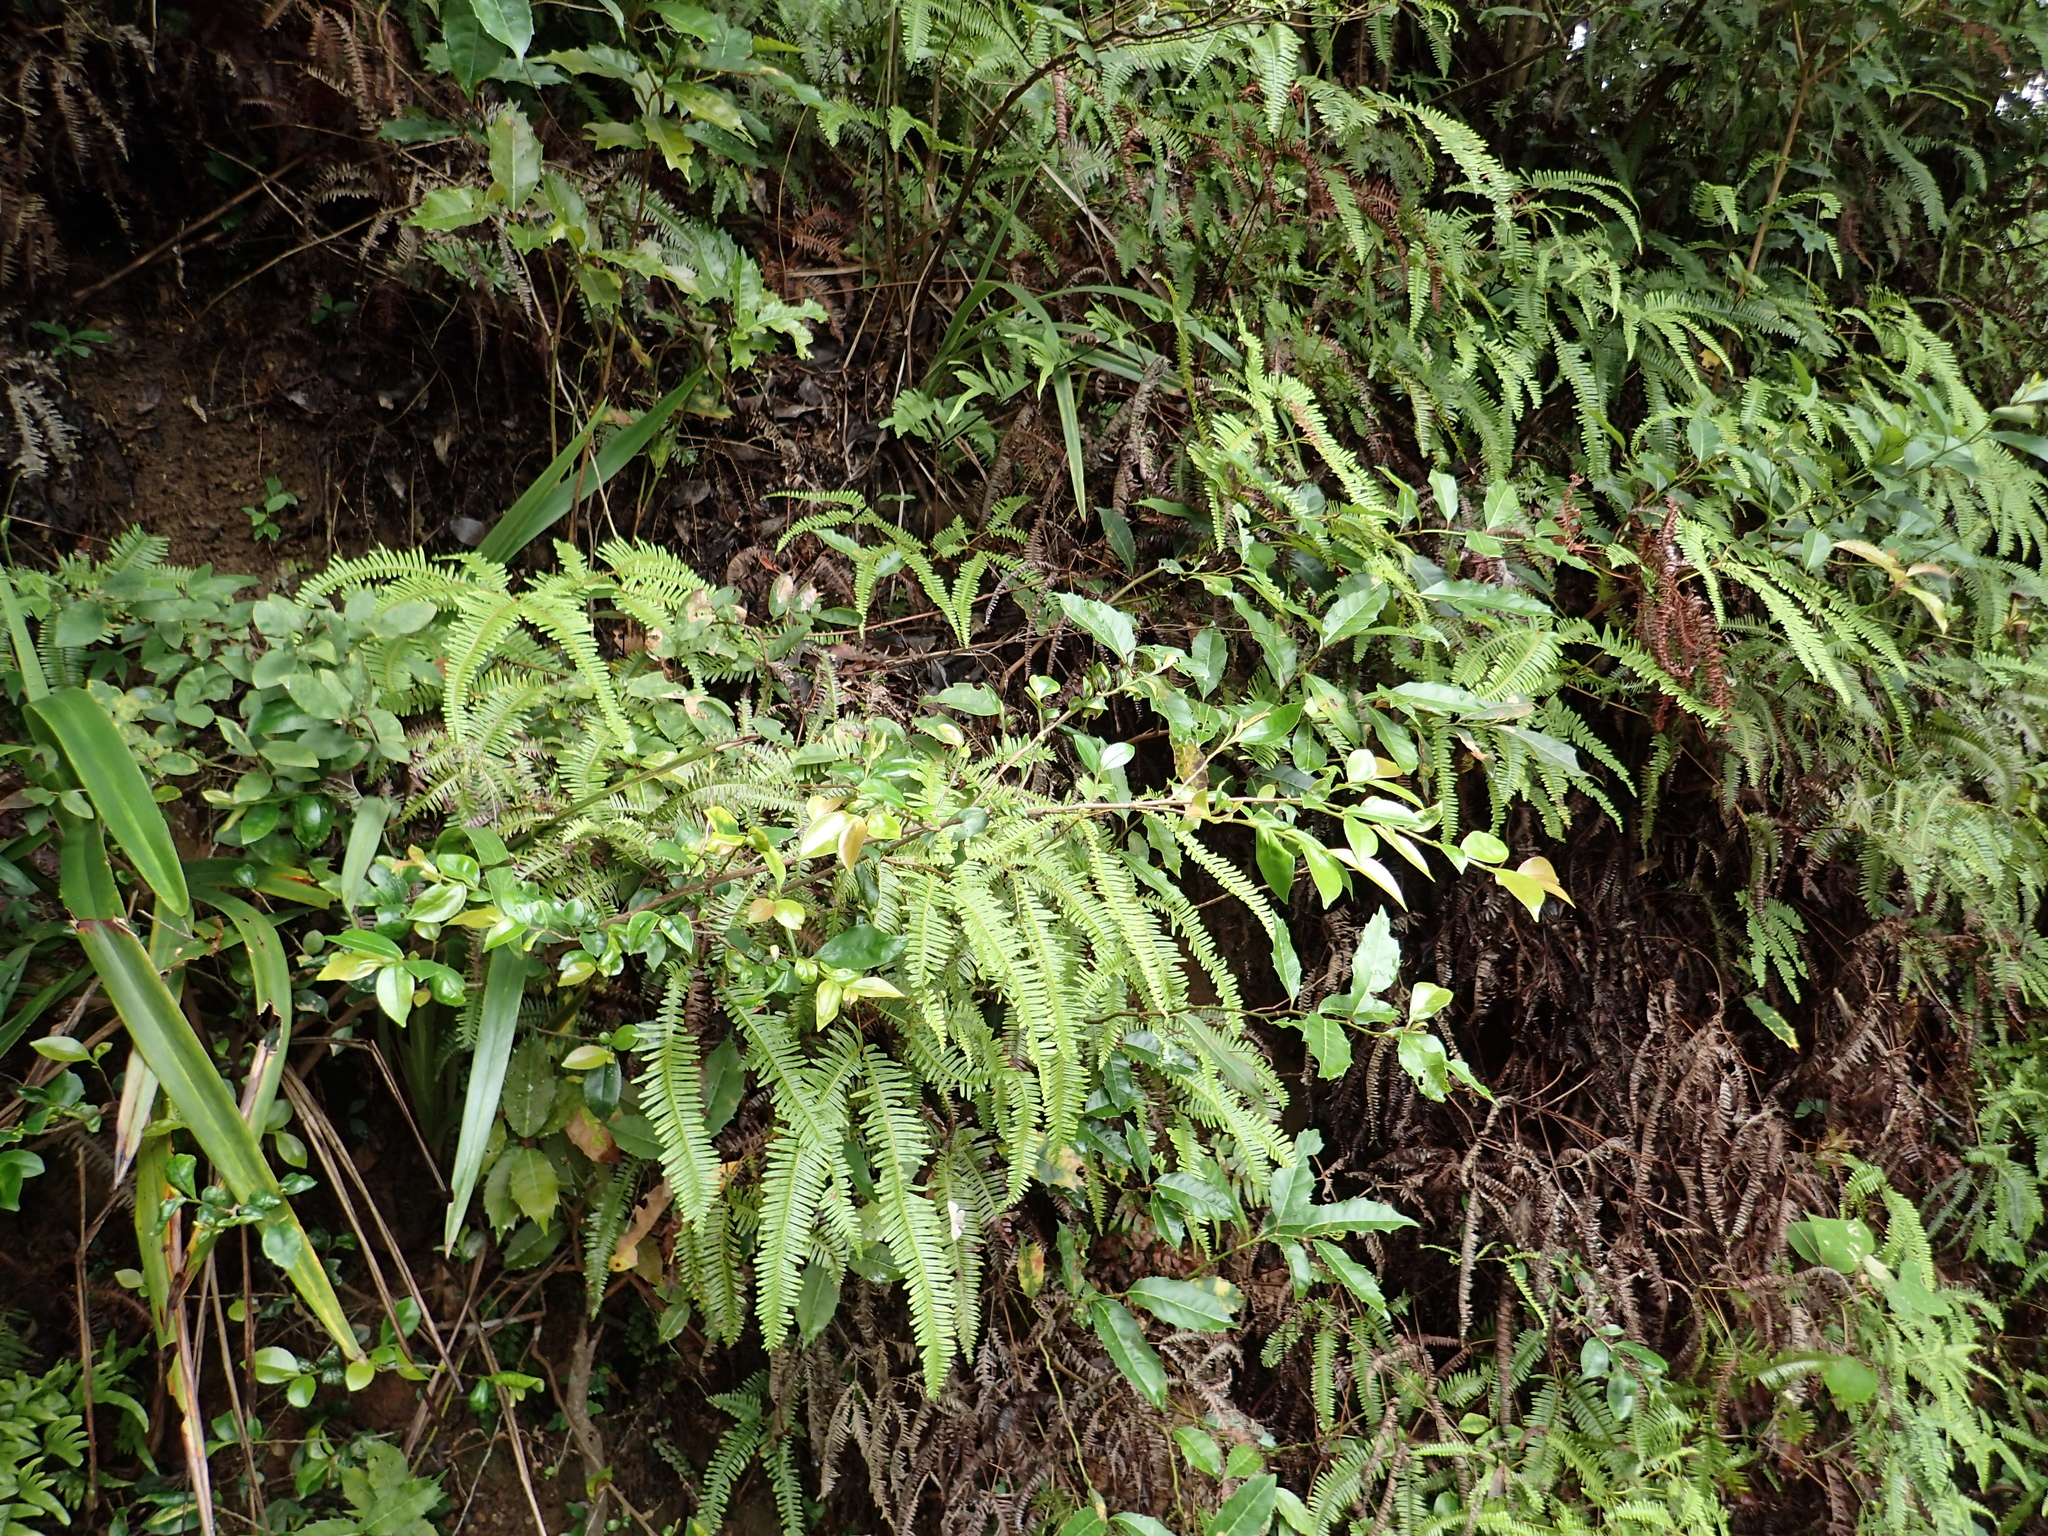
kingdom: Plantae
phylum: Tracheophyta
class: Polypodiopsida
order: Gleicheniales
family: Gleicheniaceae
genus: Dicranopteris
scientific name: Dicranopteris linearis
